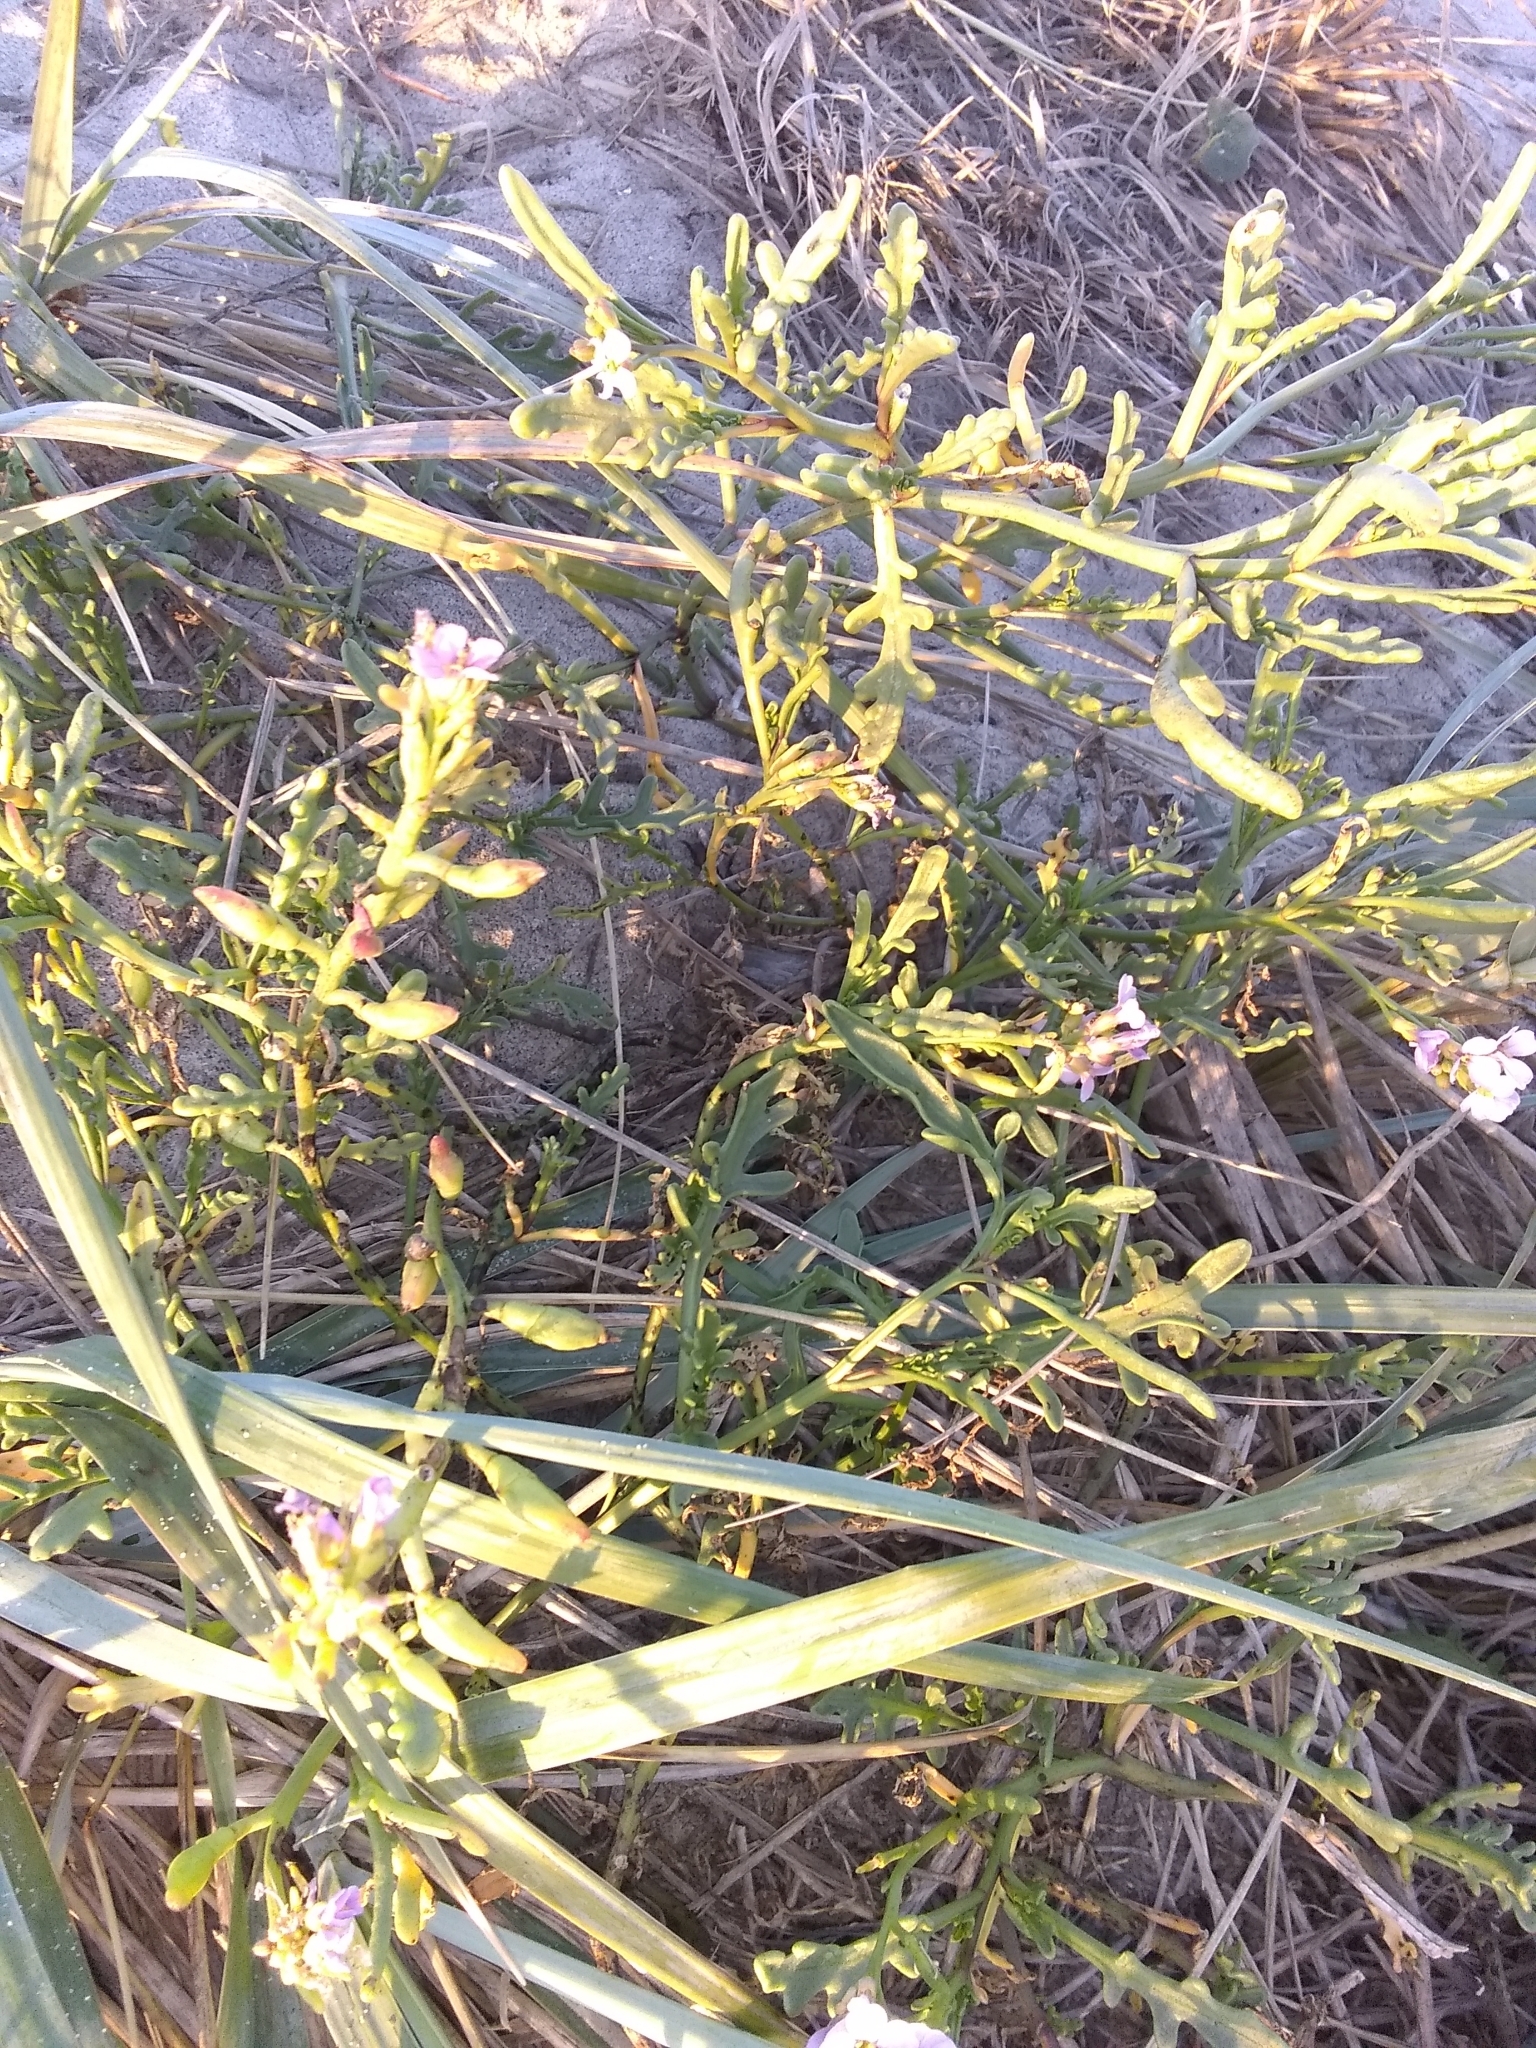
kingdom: Plantae
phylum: Tracheophyta
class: Magnoliopsida
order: Brassicales
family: Brassicaceae
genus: Cakile
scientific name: Cakile maritima
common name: Sea rocket
